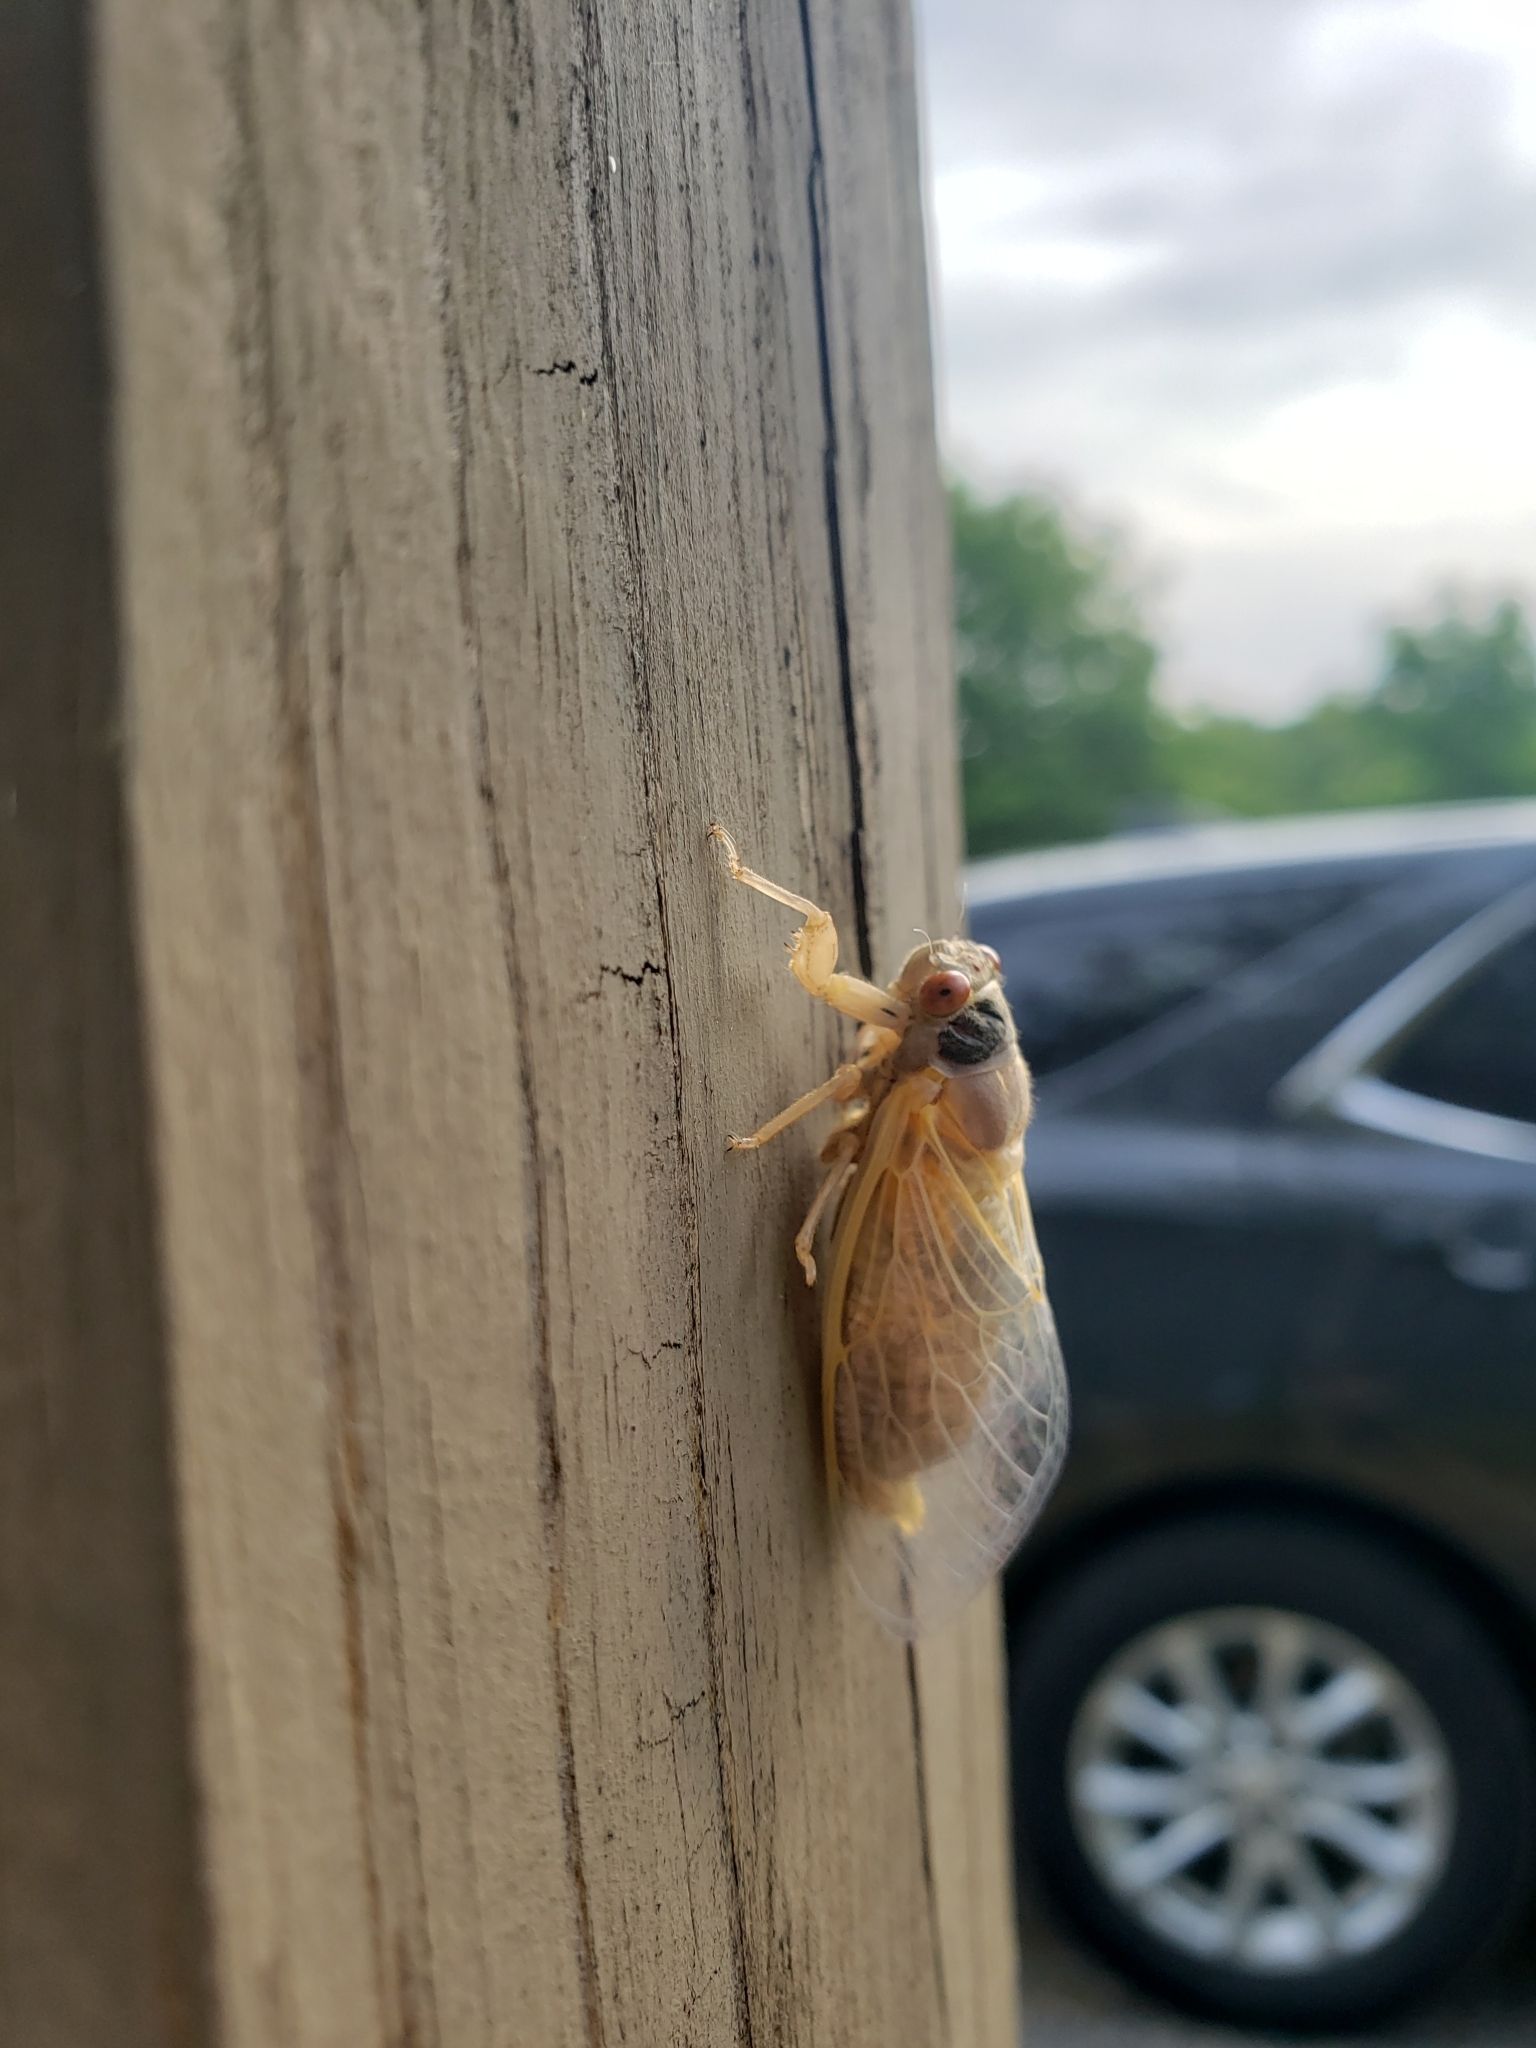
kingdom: Animalia
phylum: Arthropoda
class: Insecta
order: Hemiptera
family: Cicadidae
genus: Magicicada
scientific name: Magicicada
